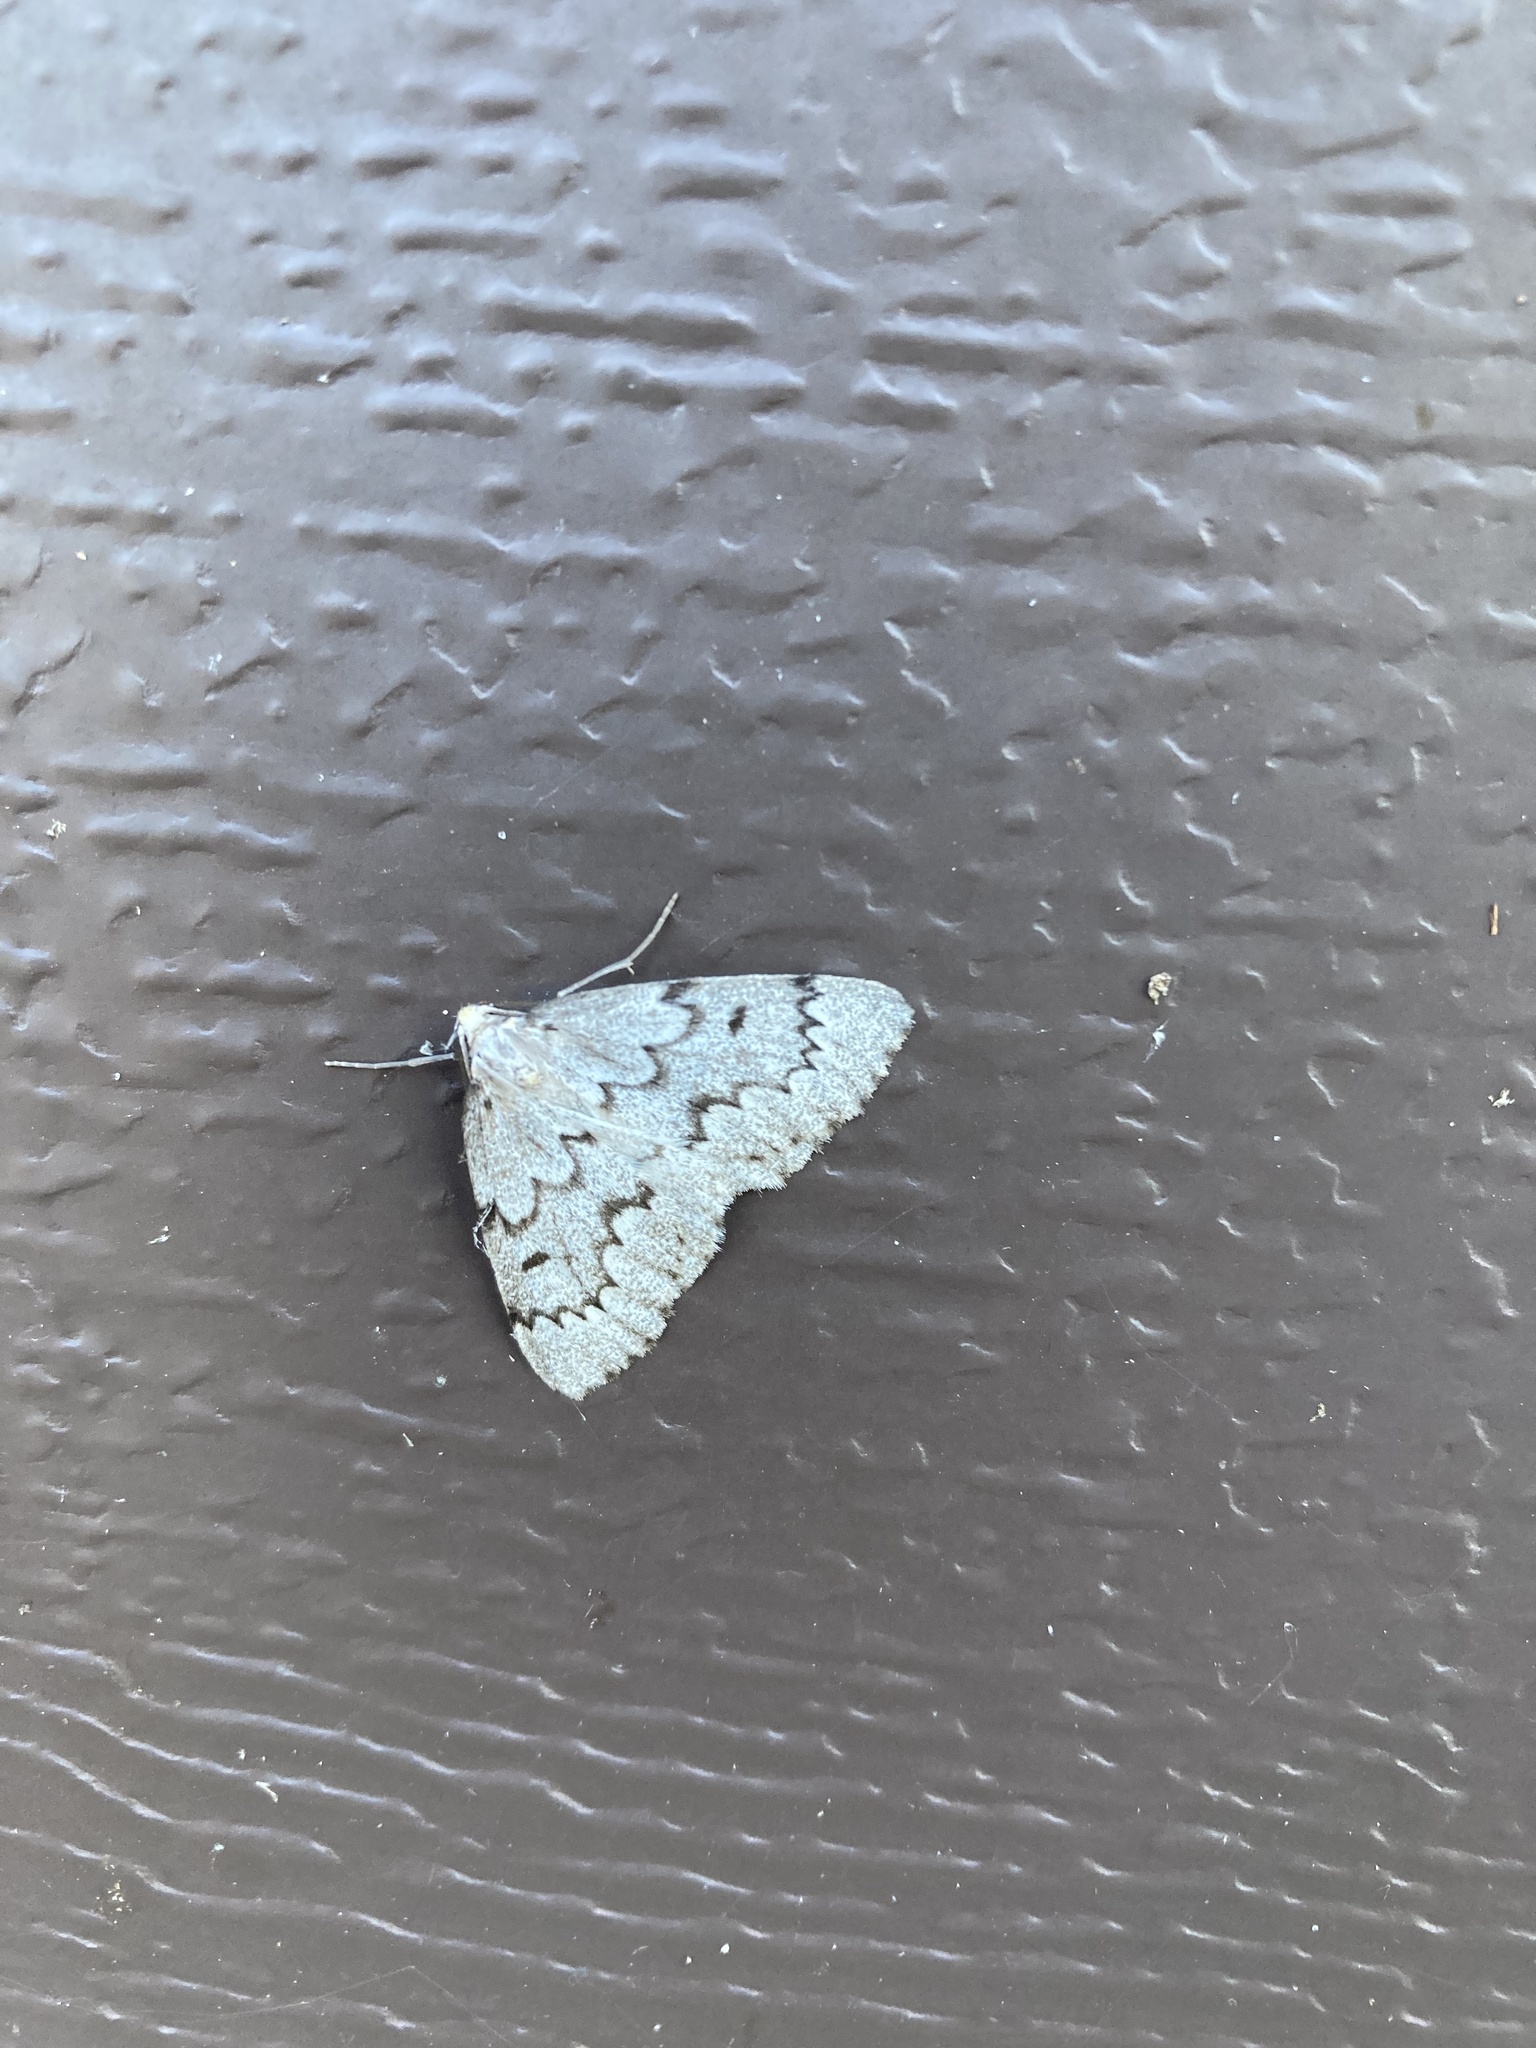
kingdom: Animalia
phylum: Arthropoda
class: Insecta
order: Lepidoptera
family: Geometridae
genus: Nepytia
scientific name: Nepytia canosaria
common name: False hemlock looper
